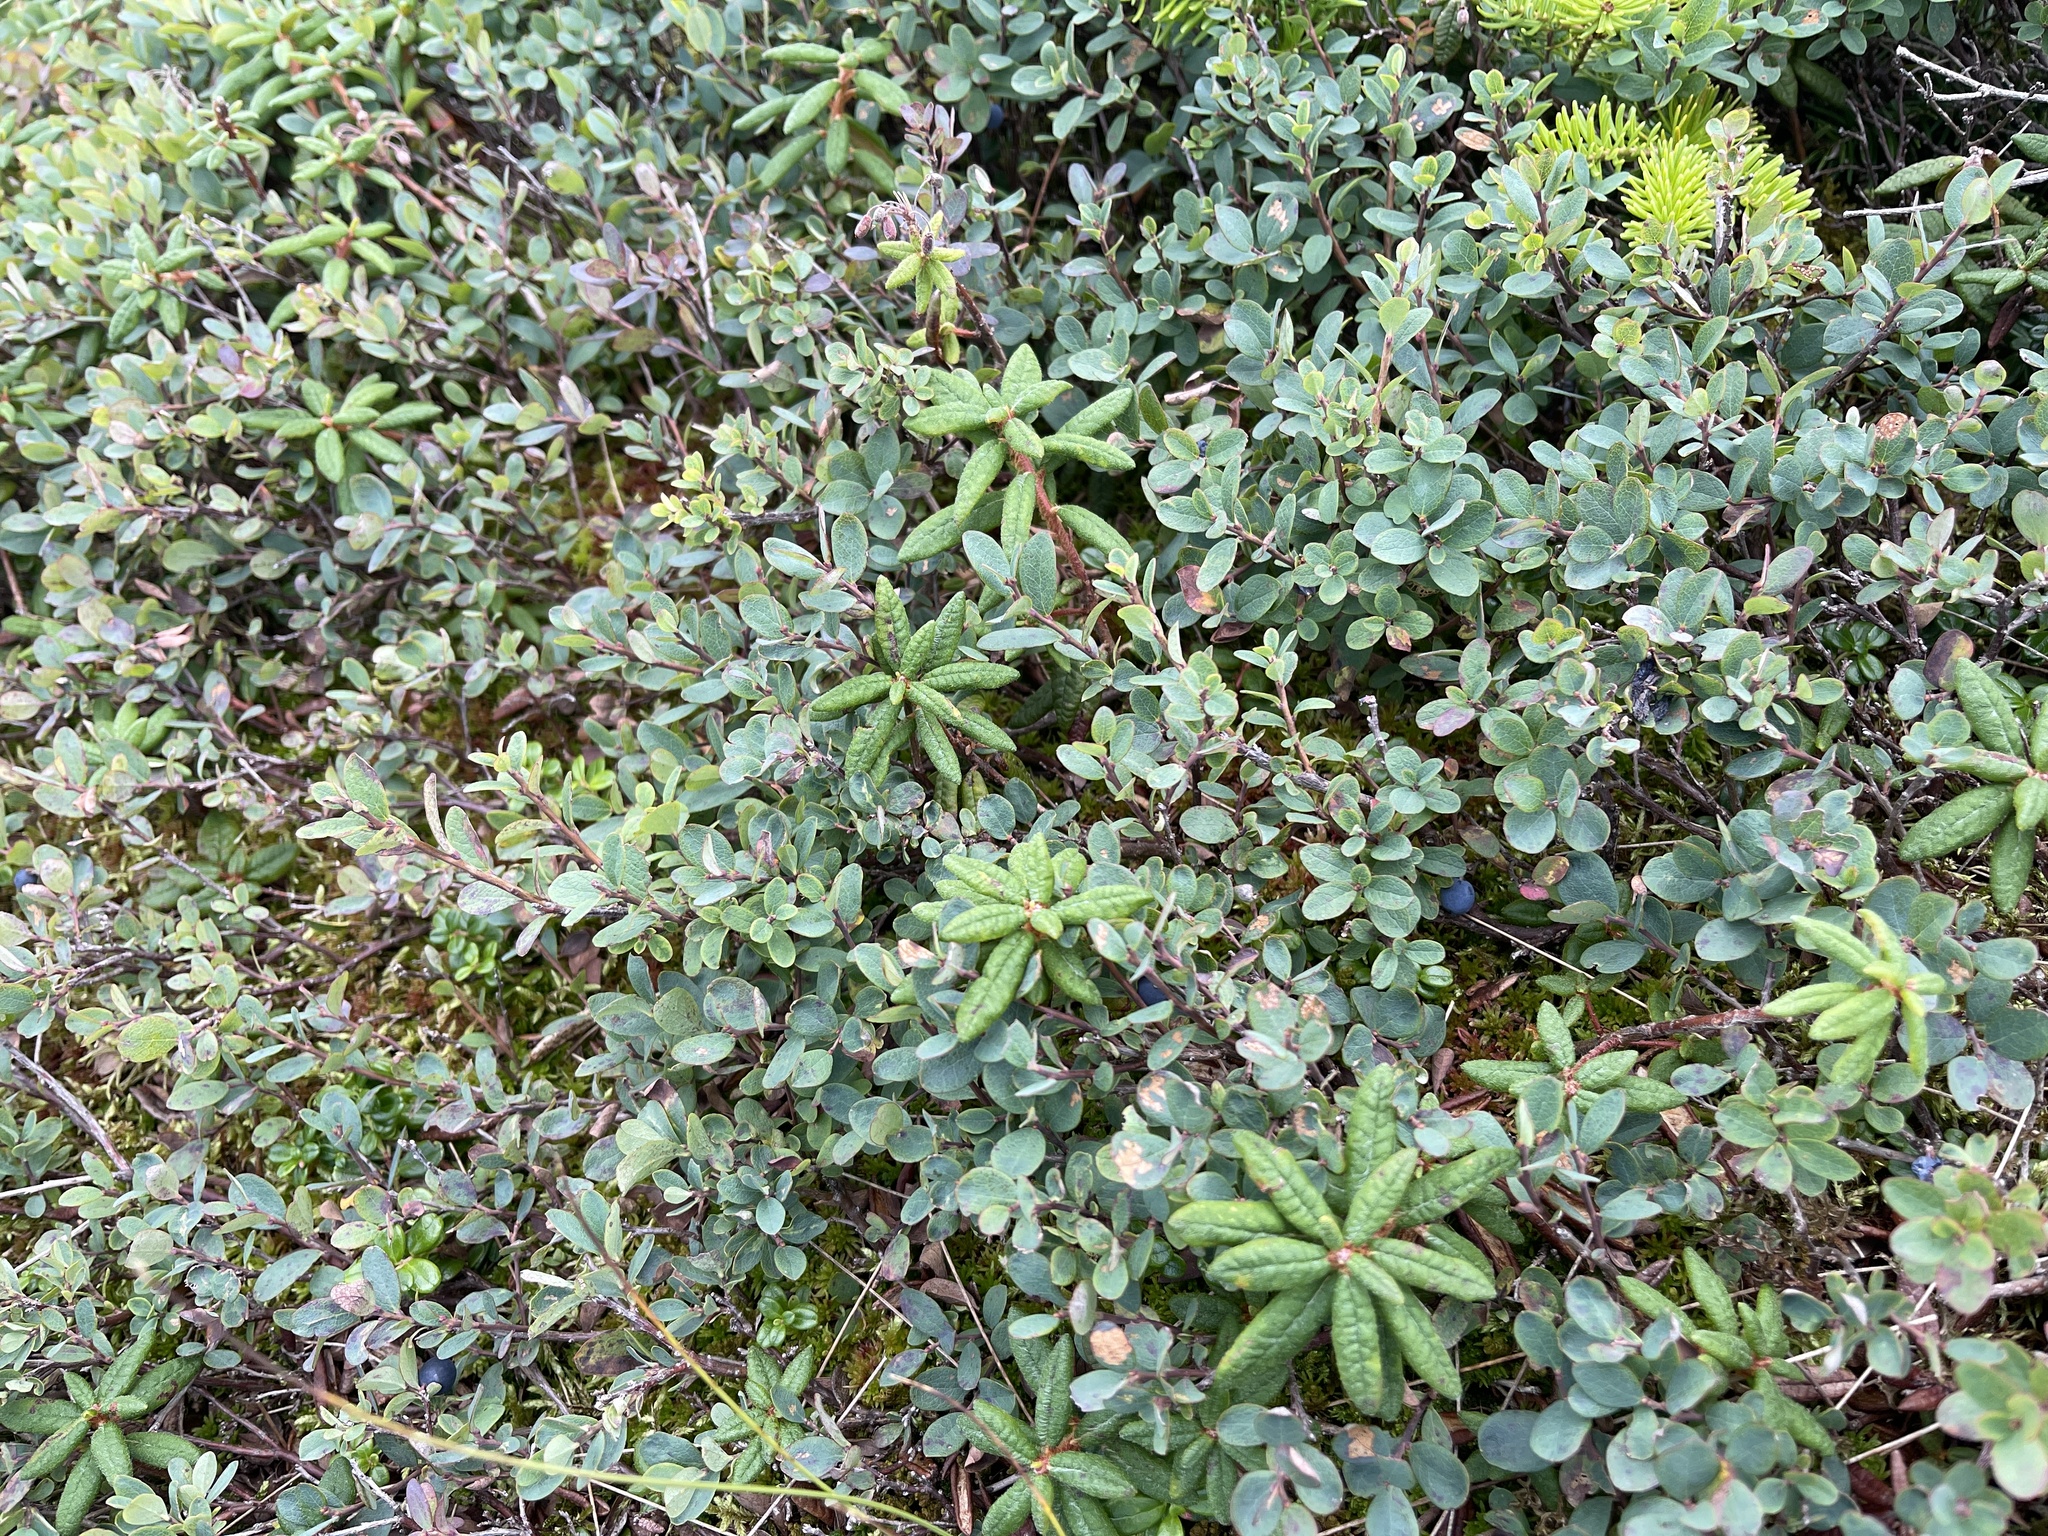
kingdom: Plantae
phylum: Tracheophyta
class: Magnoliopsida
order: Ericales
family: Ericaceae
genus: Vaccinium
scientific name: Vaccinium uliginosum
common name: Bog bilberry
